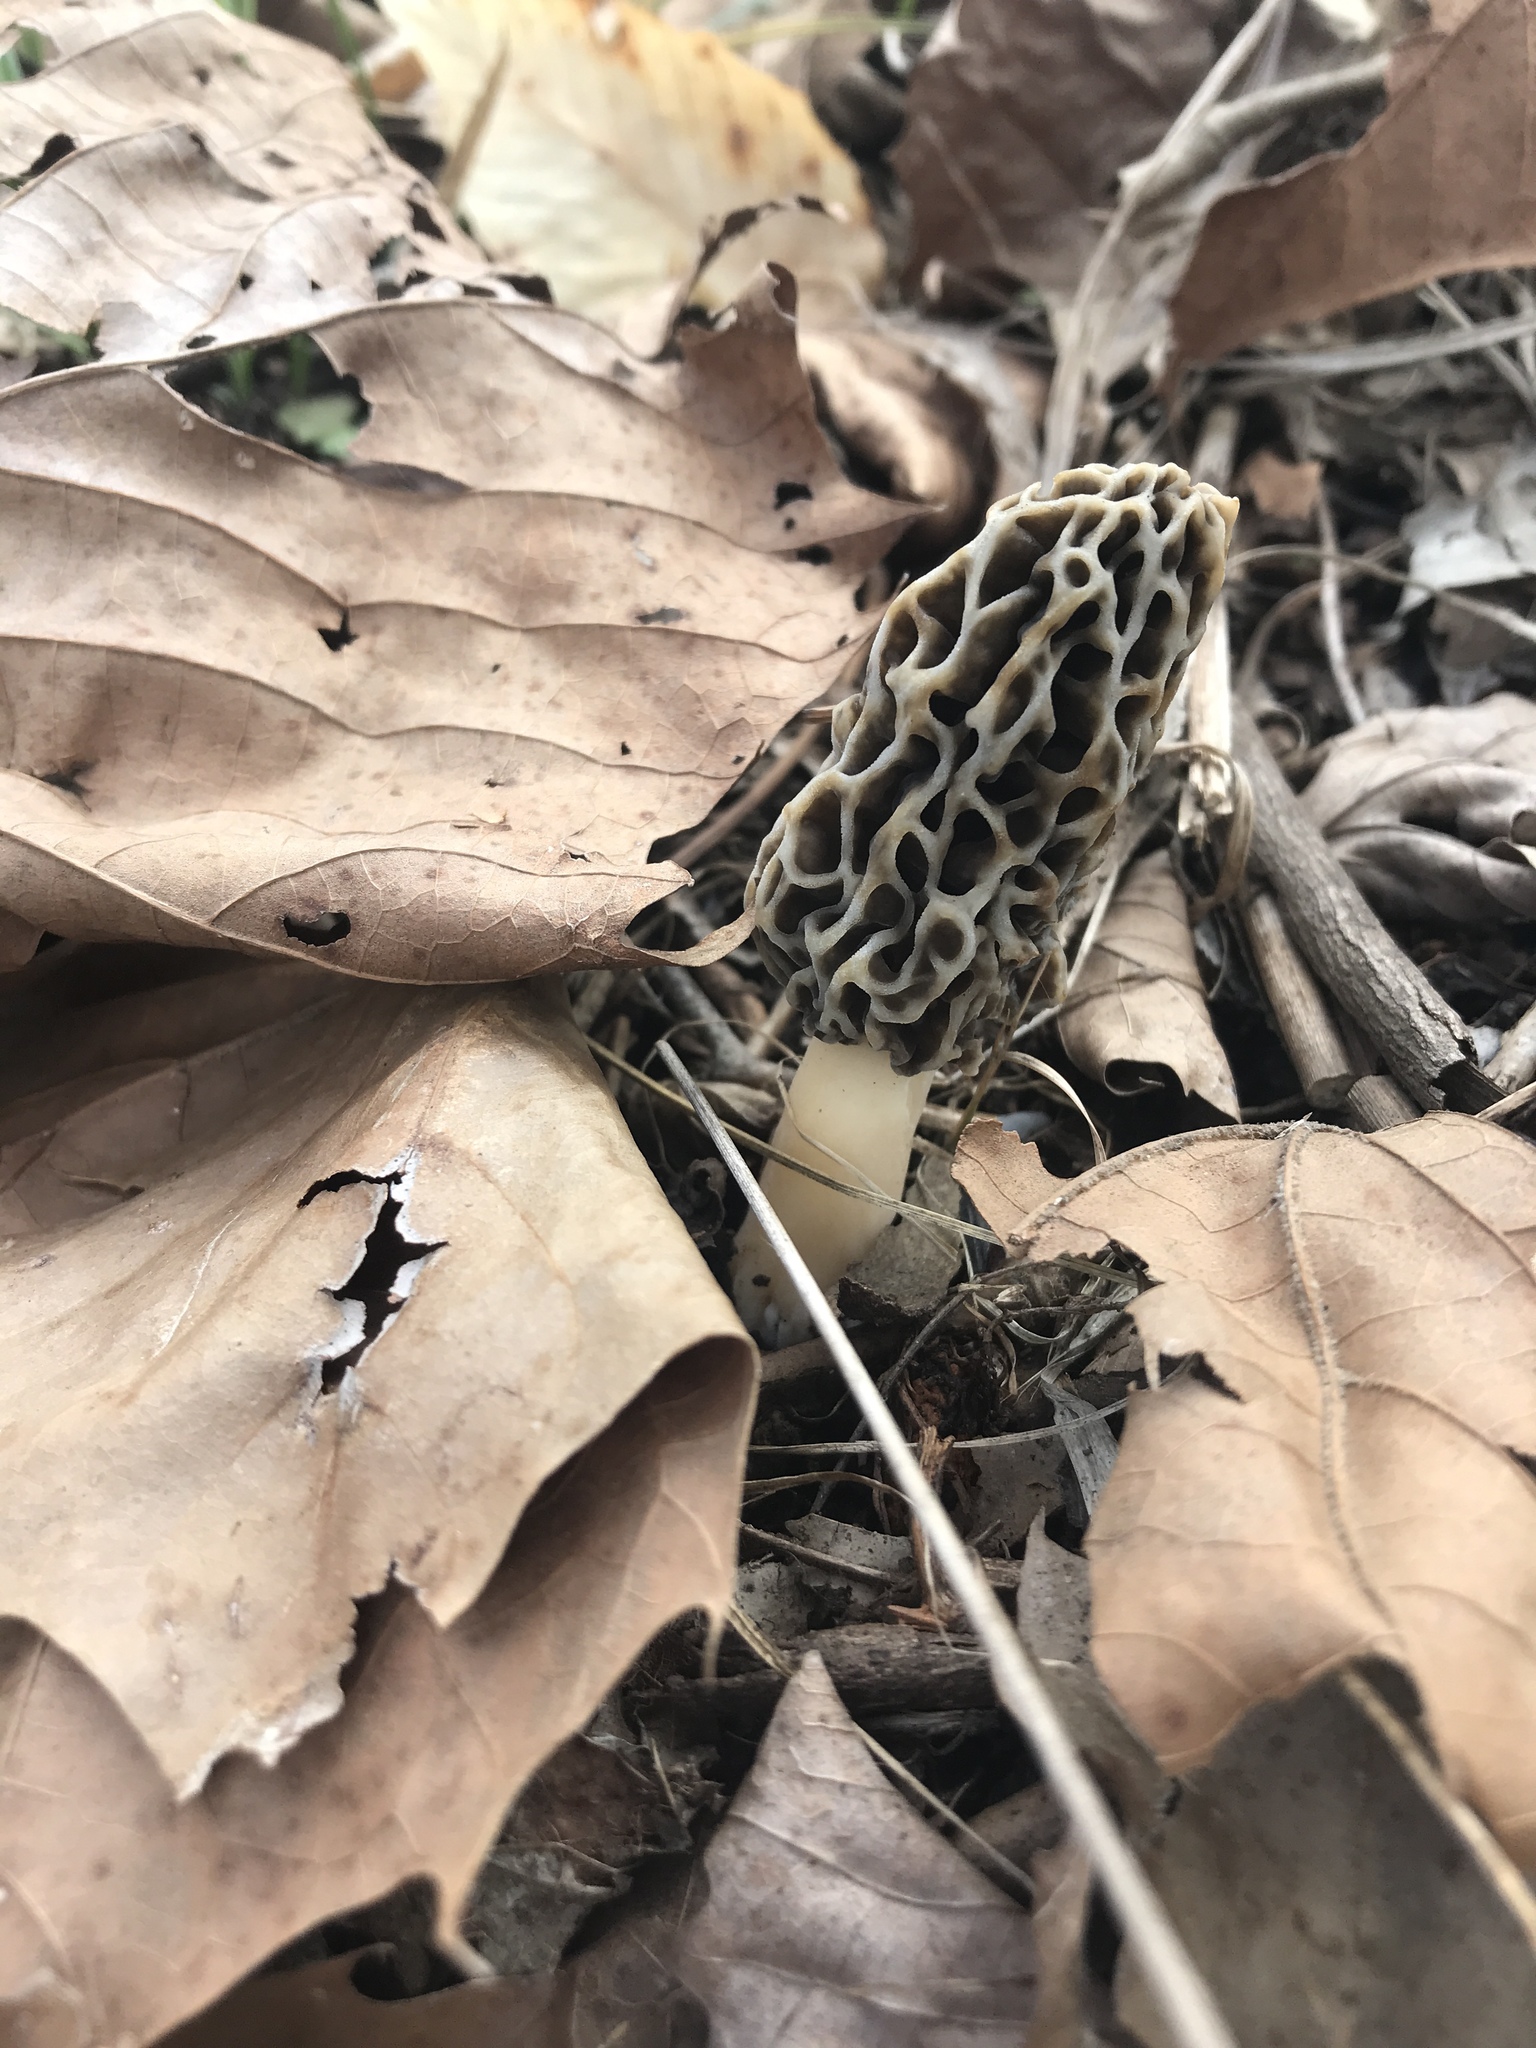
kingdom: Fungi
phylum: Ascomycota
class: Pezizomycetes
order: Pezizales
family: Morchellaceae
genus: Morchella
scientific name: Morchella americana
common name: White morel
